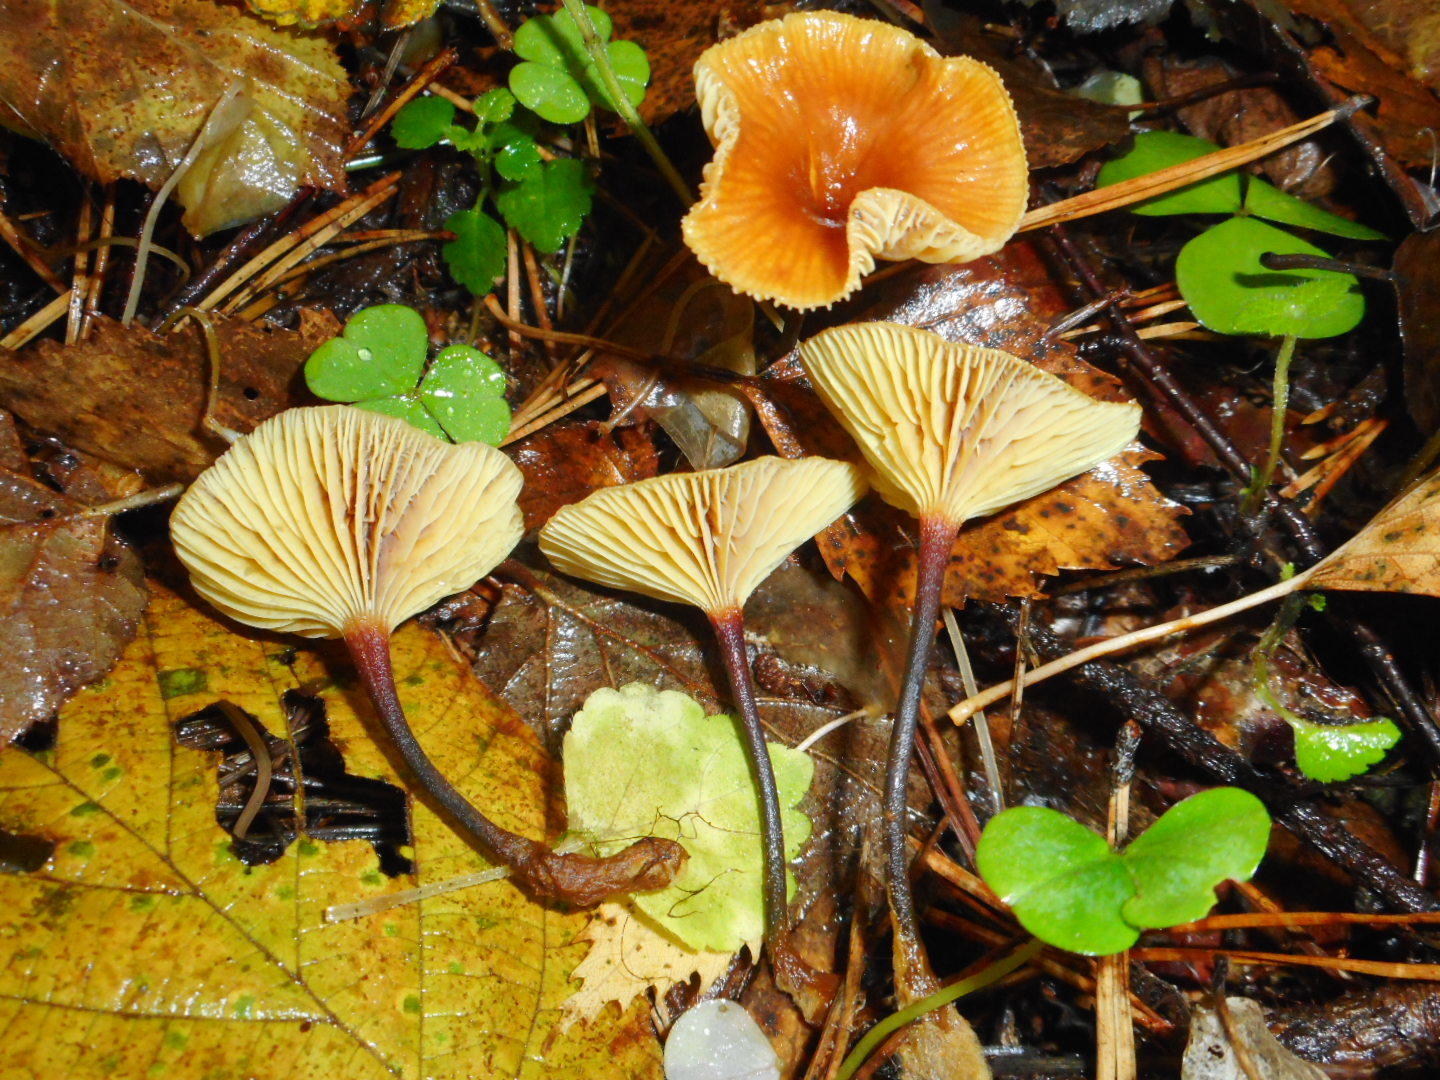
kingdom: Fungi
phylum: Basidiomycota
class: Agaricomycetes
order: Agaricales
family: Mycenaceae
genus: Xeromphalina
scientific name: Xeromphalina cauticinalis
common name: Pinelitter gingertail
